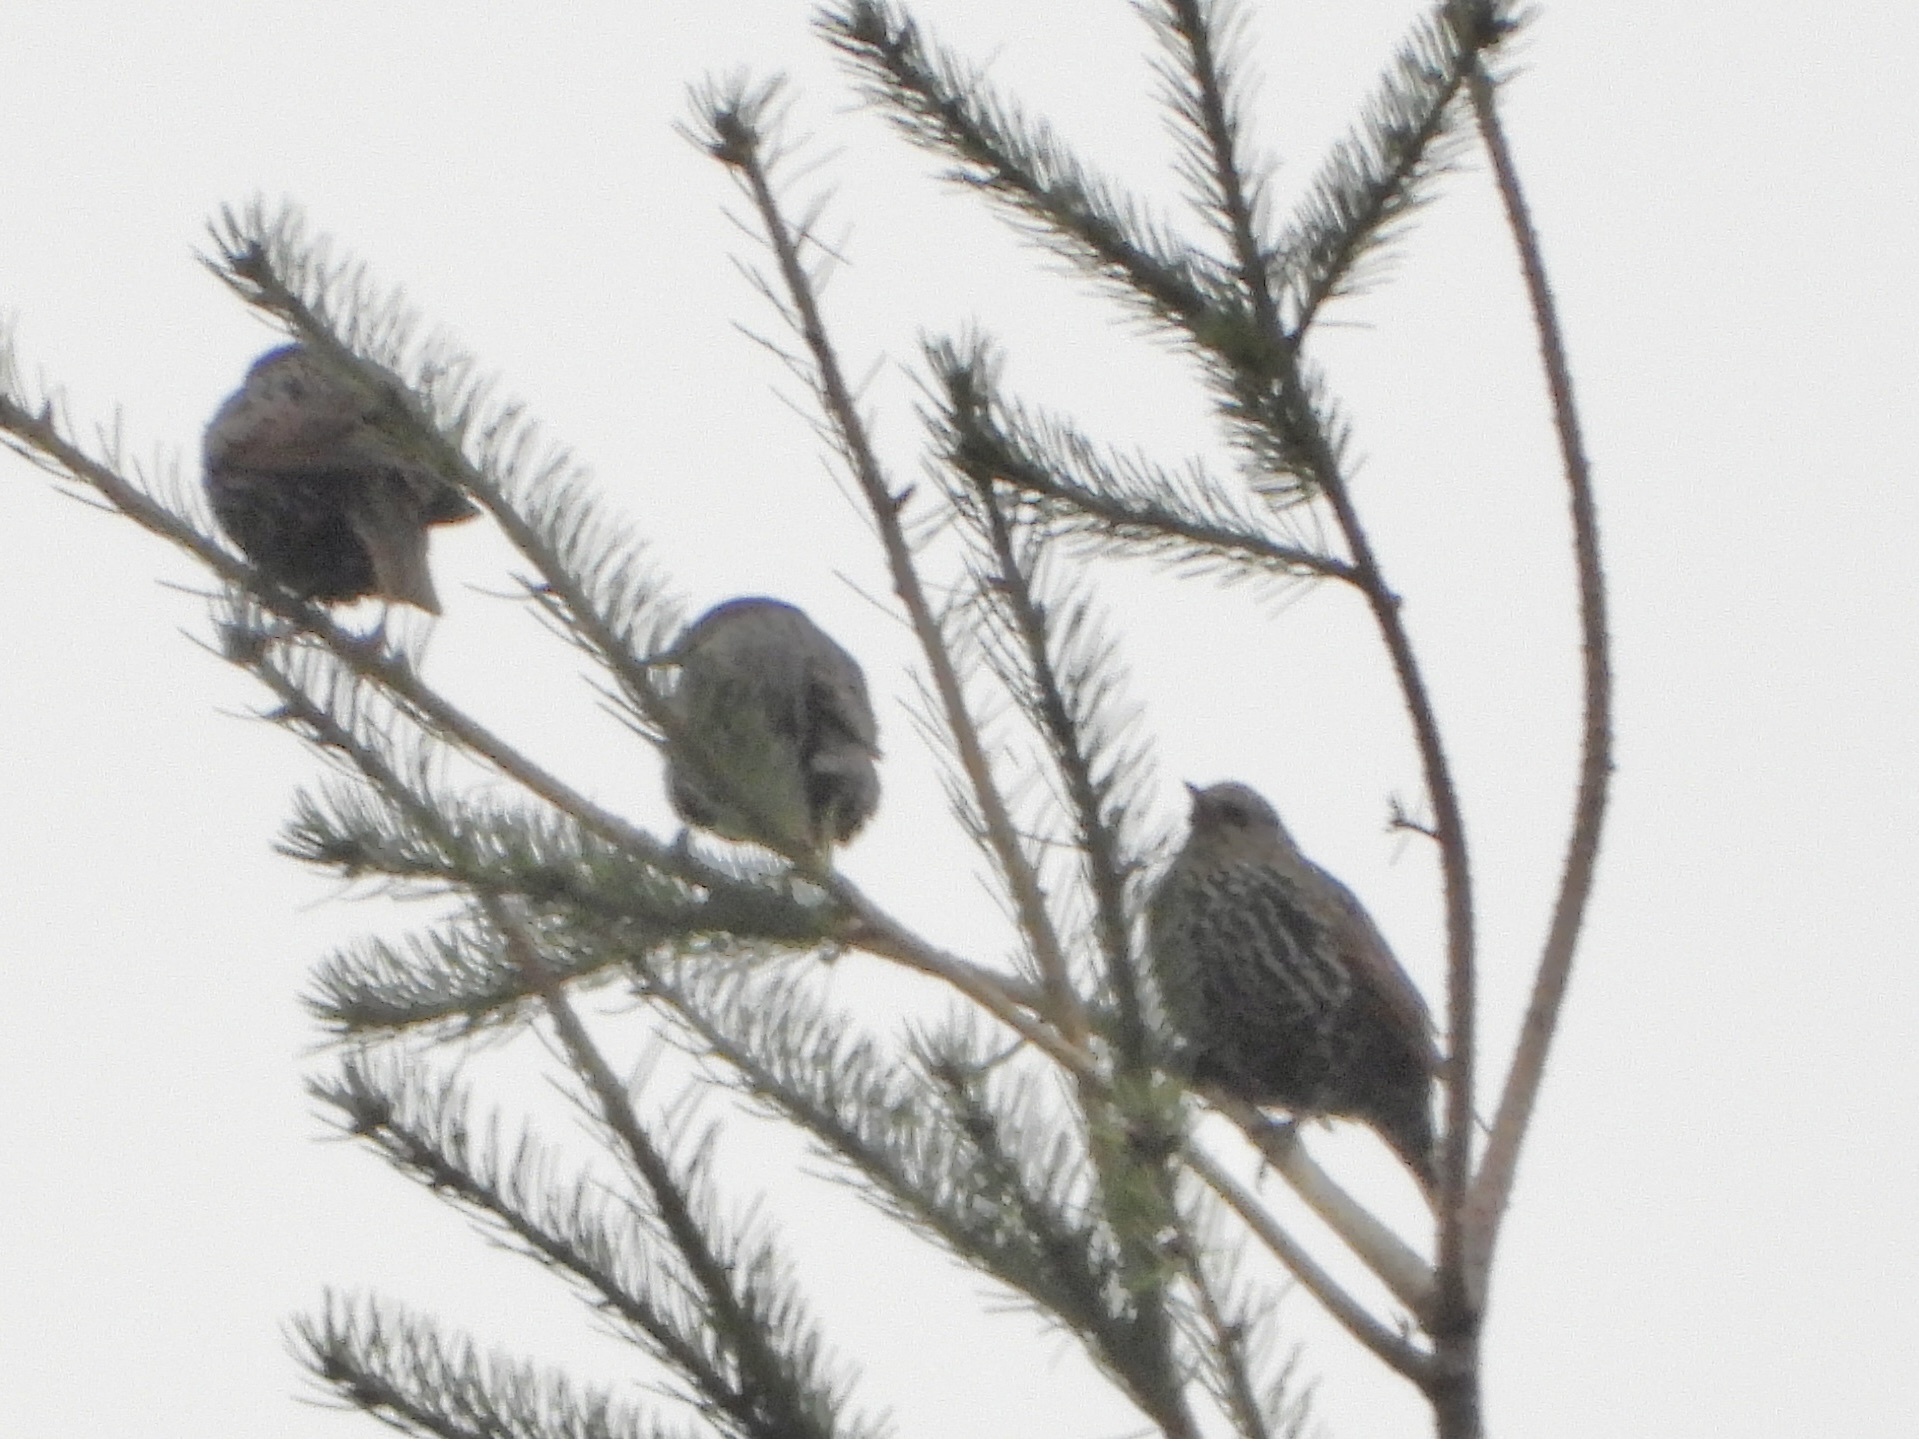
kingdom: Animalia
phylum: Chordata
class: Aves
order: Passeriformes
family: Sturnidae
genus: Sturnus
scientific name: Sturnus vulgaris
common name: Common starling
